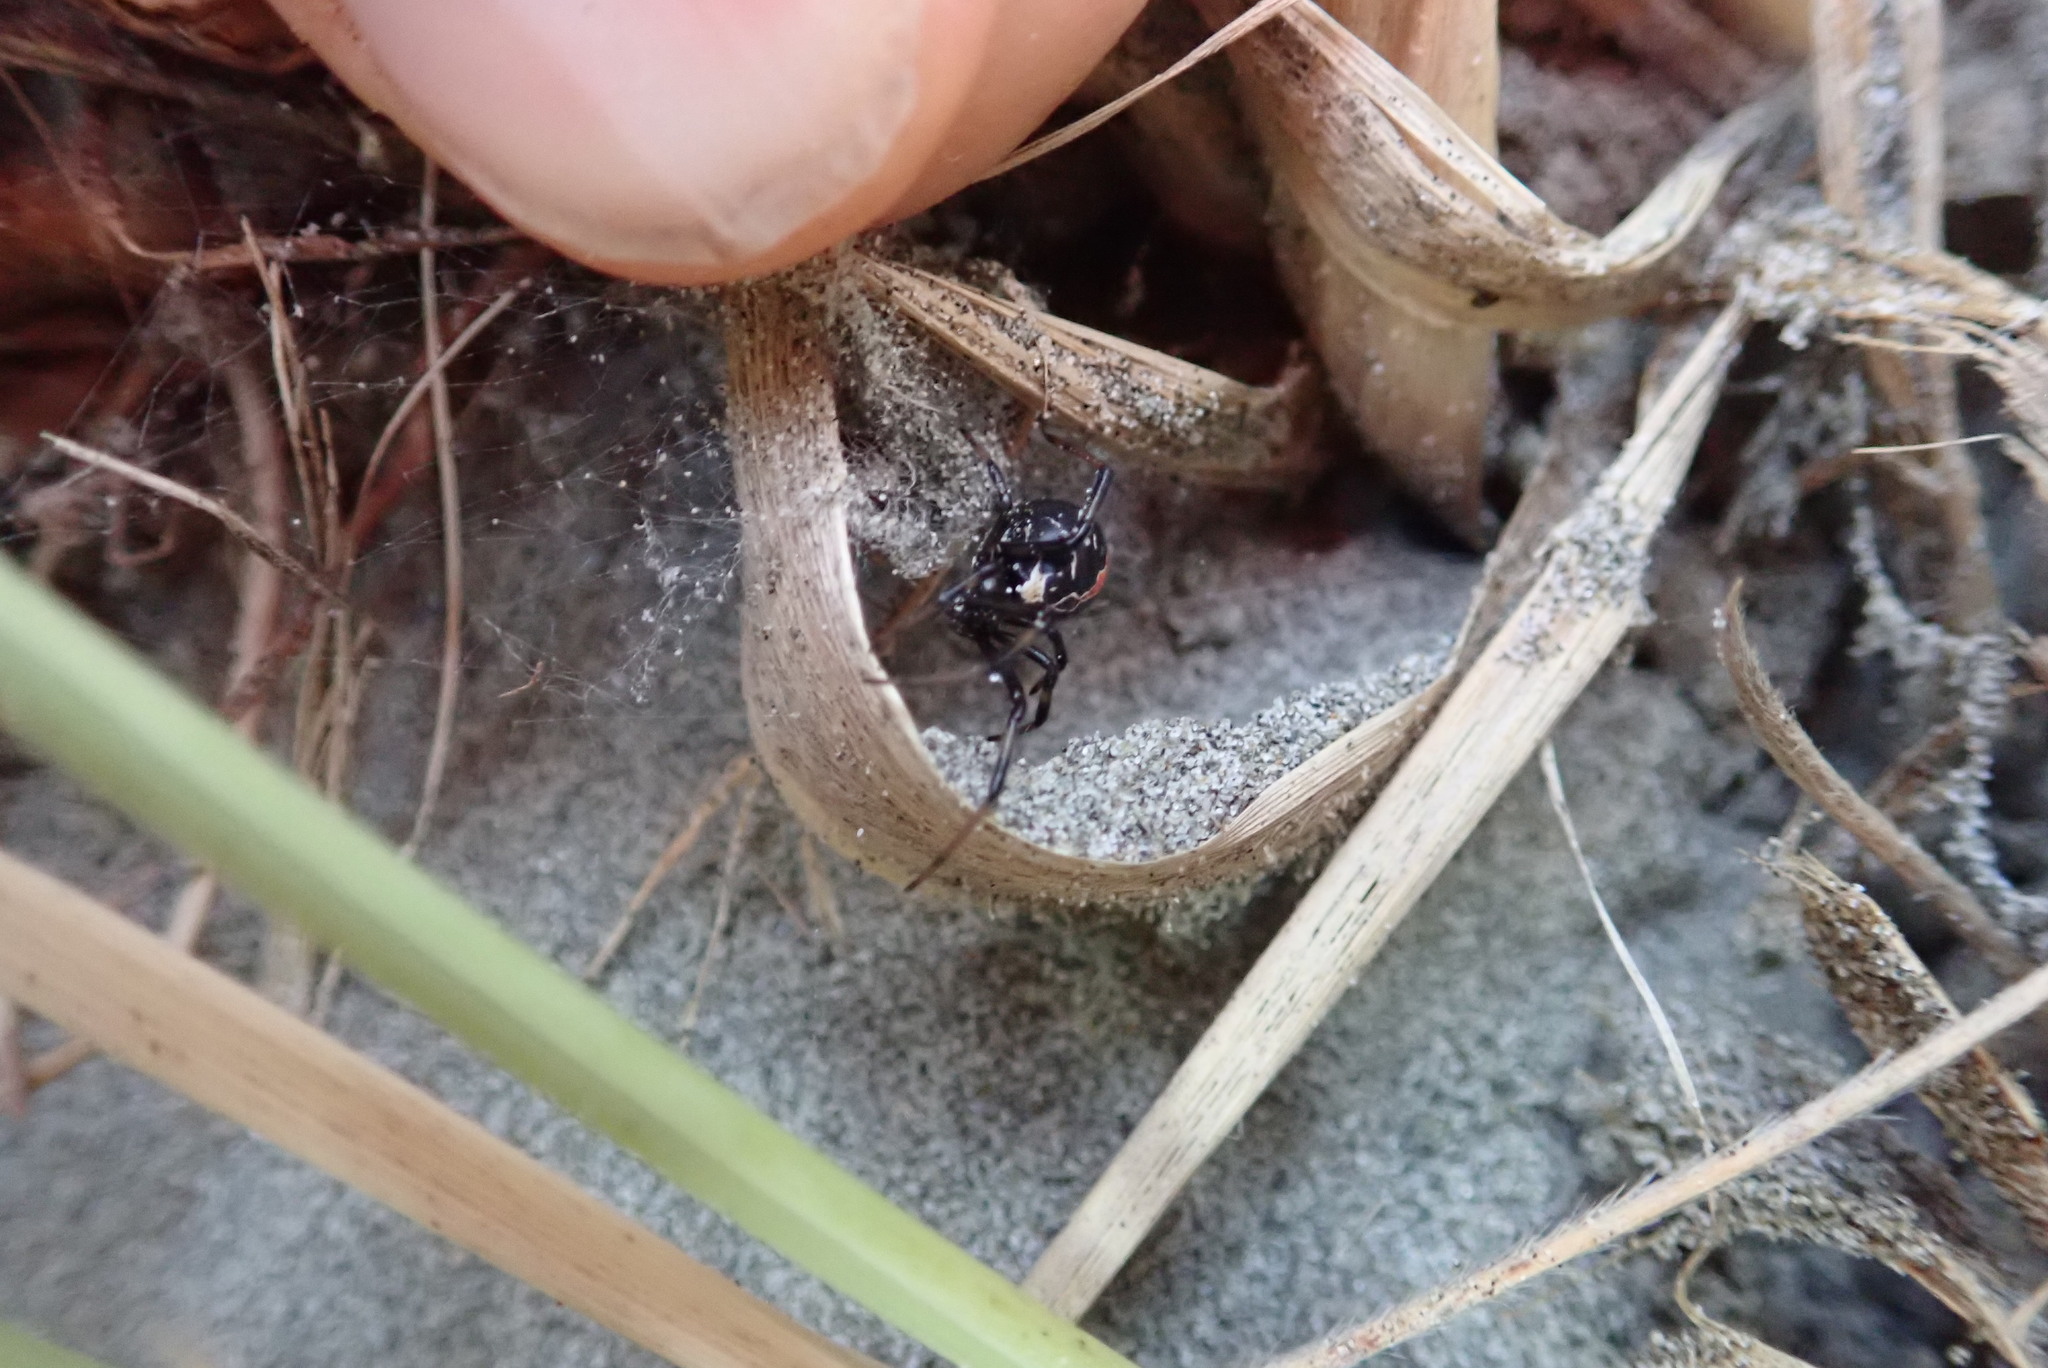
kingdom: Animalia
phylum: Arthropoda
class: Arachnida
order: Araneae
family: Theridiidae
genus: Latrodectus
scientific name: Latrodectus katipo
